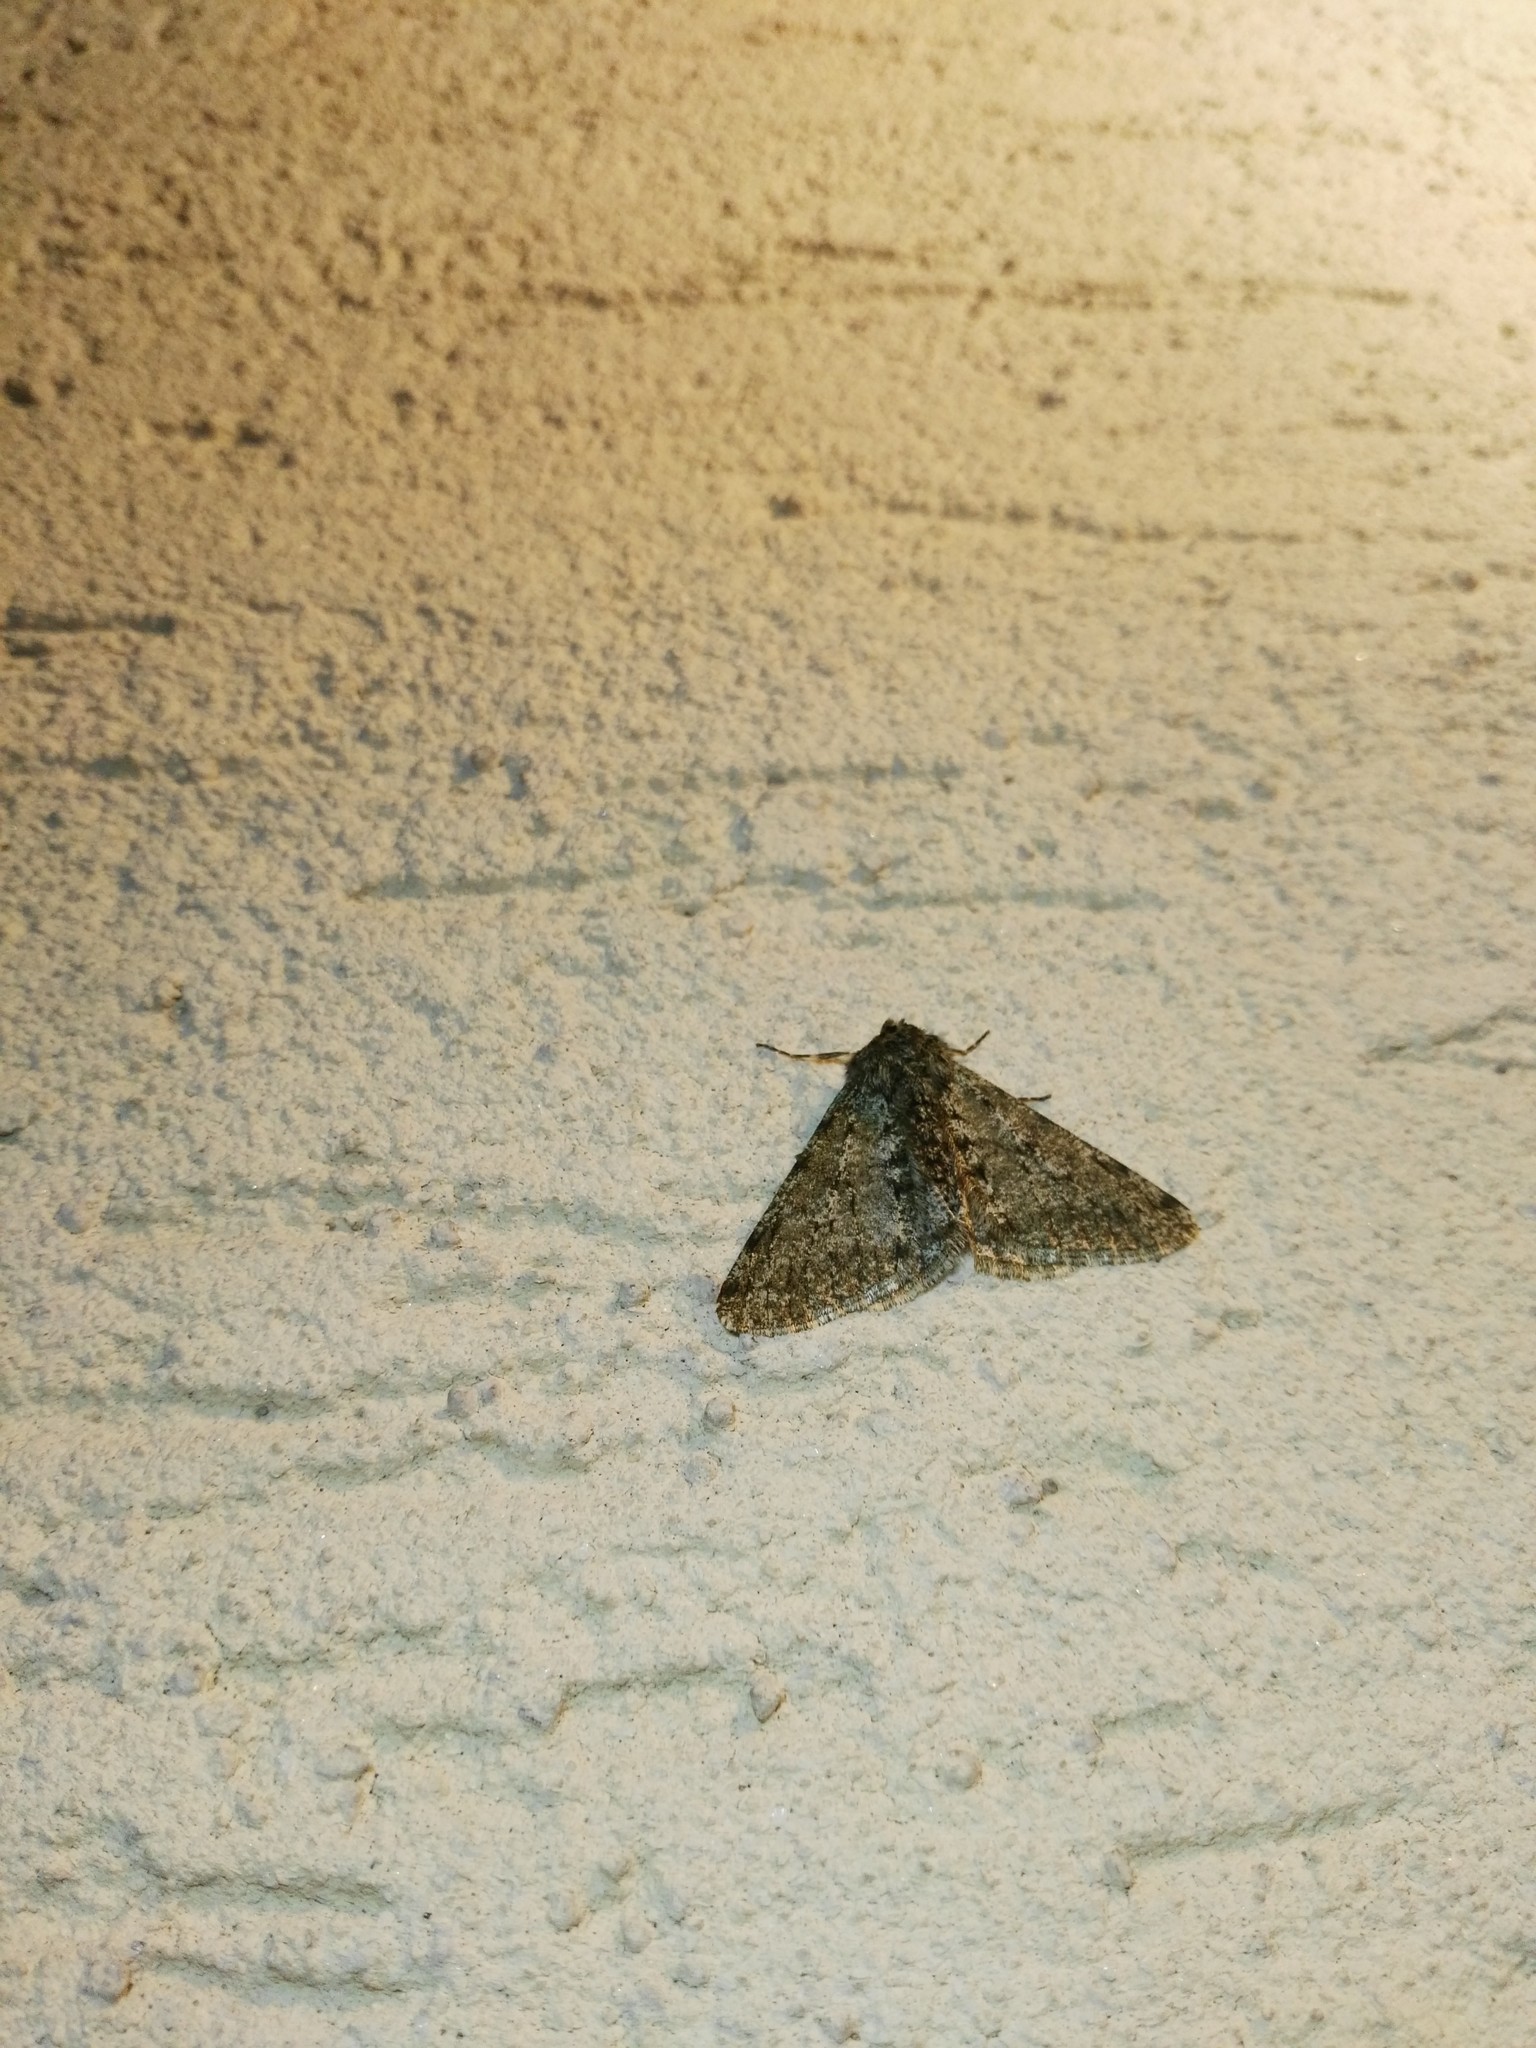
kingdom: Animalia
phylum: Arthropoda
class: Insecta
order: Lepidoptera
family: Geometridae
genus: Phigalia
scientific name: Phigalia pilosaria
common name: Pale brindled beauty
